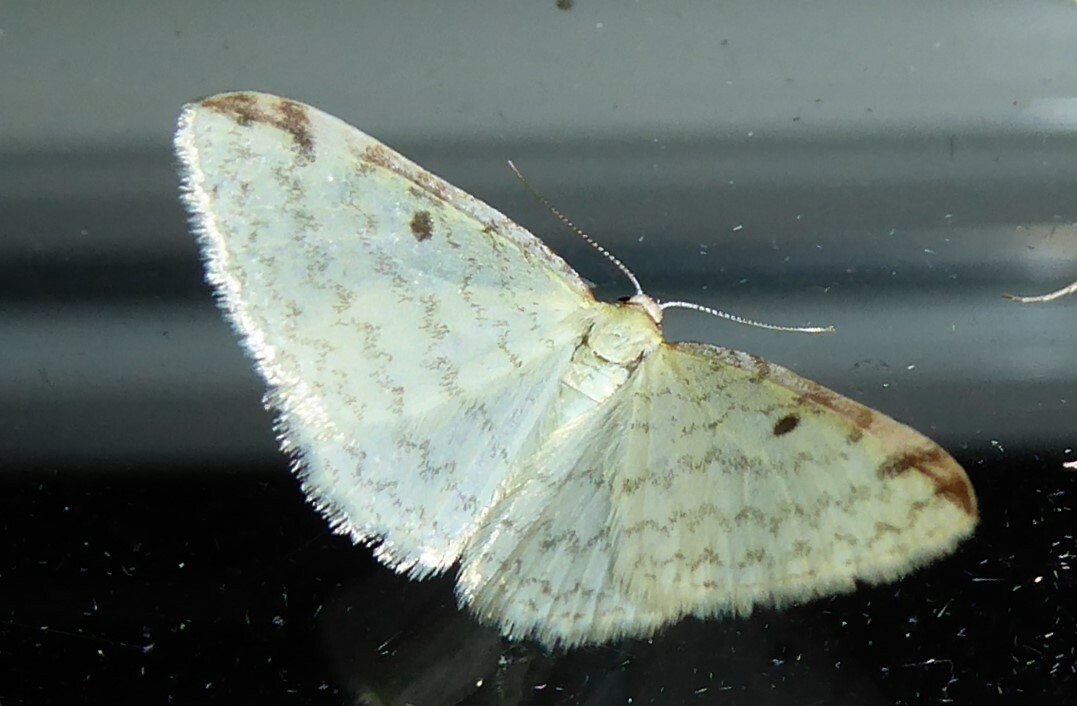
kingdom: Animalia
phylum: Arthropoda
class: Insecta
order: Lepidoptera
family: Geometridae
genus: Epiphryne
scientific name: Epiphryne undosata
